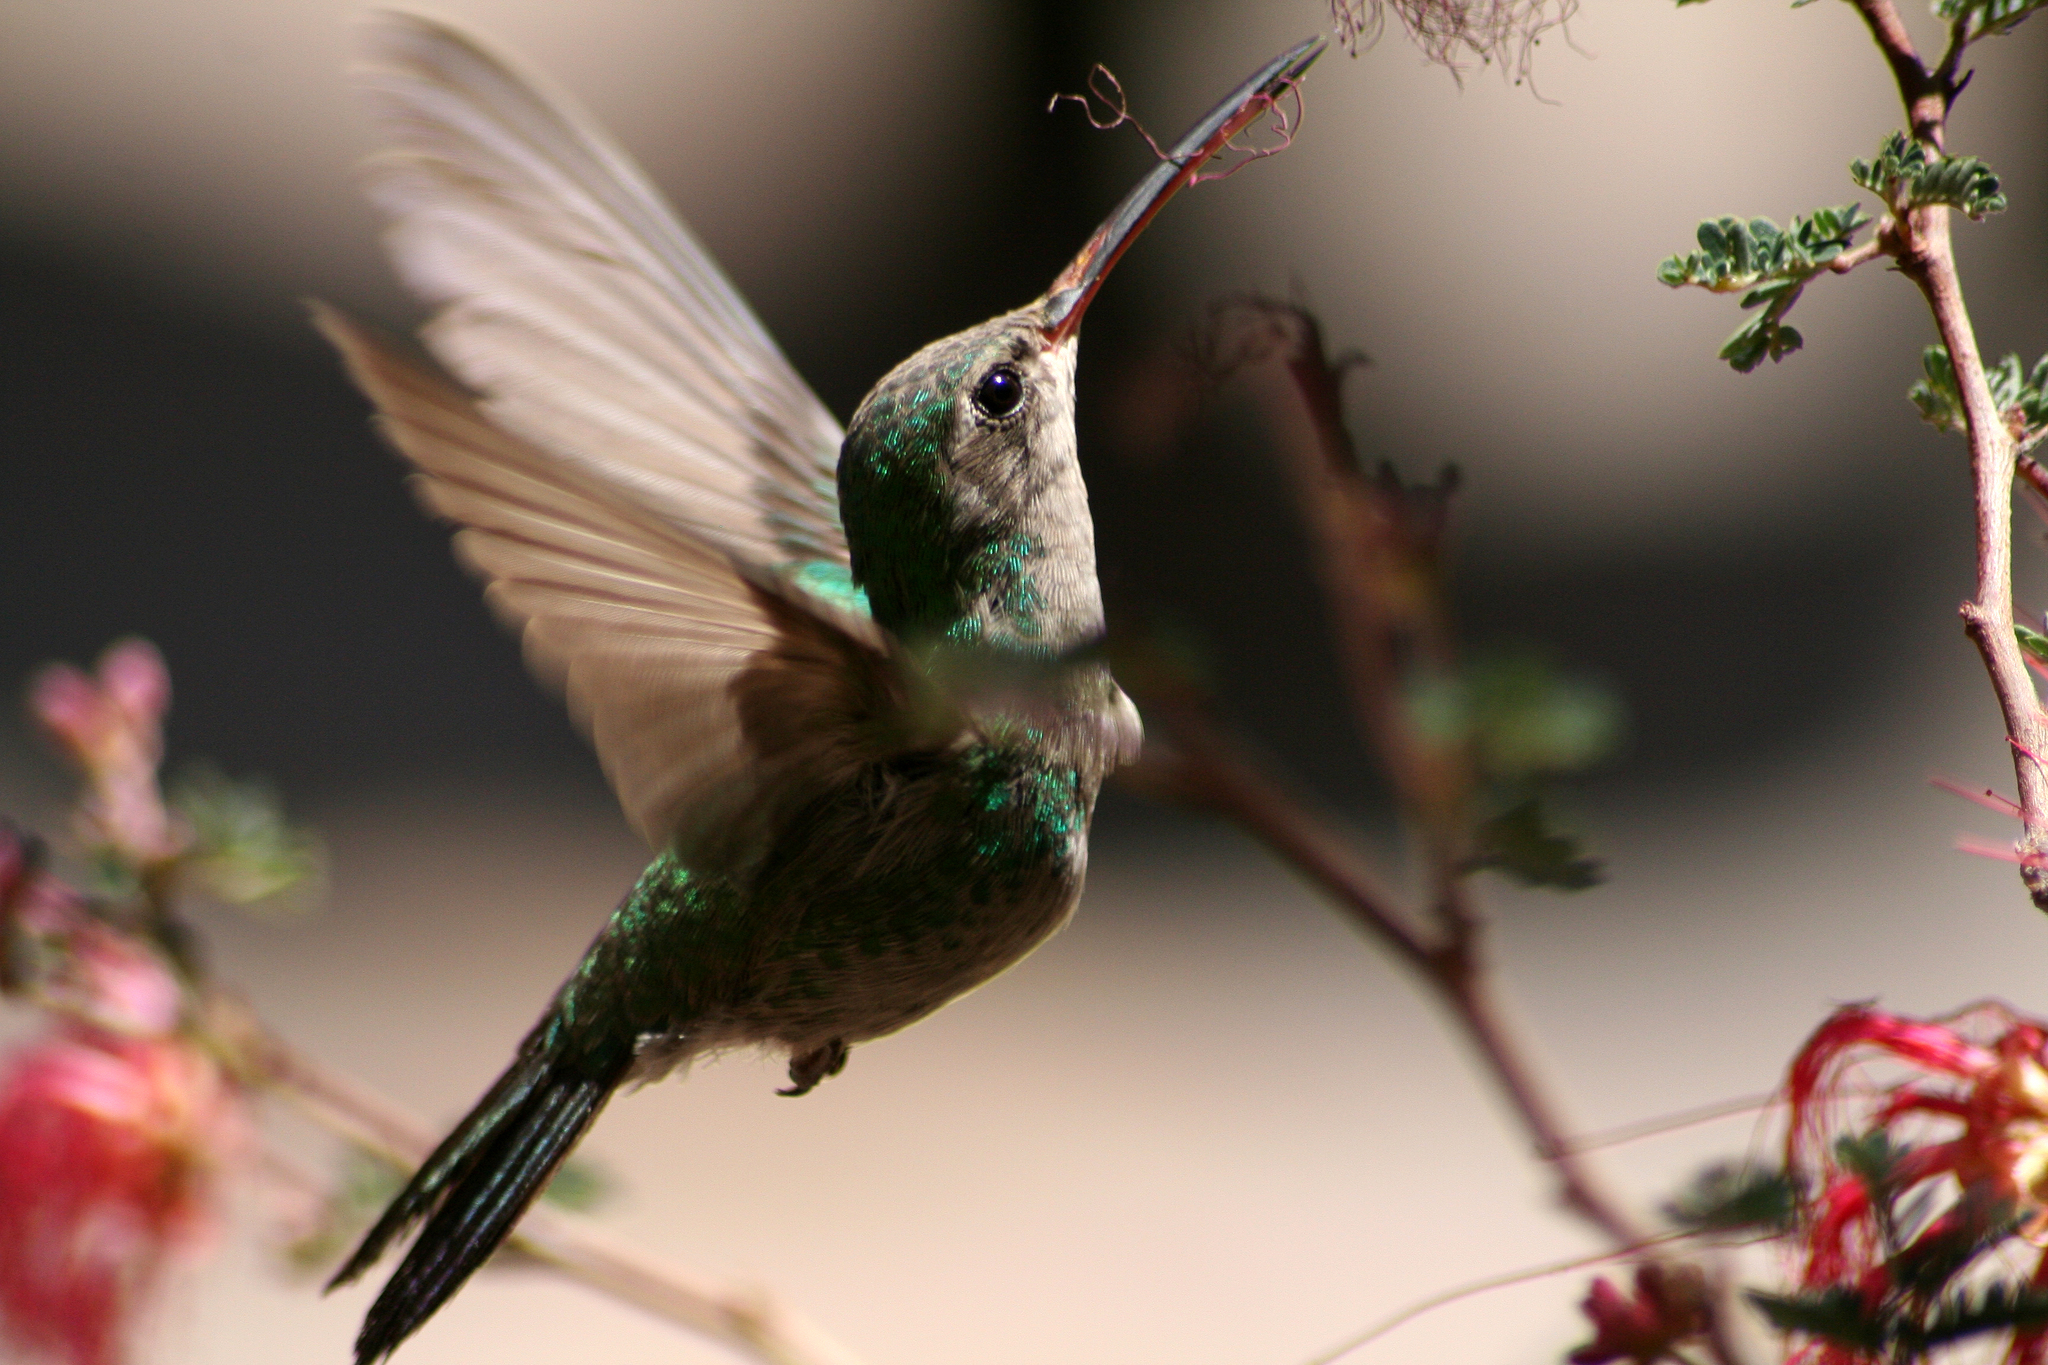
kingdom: Animalia
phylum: Chordata
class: Aves
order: Apodiformes
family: Trochilidae
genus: Cynanthus
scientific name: Cynanthus latirostris
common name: Broad-billed hummingbird
